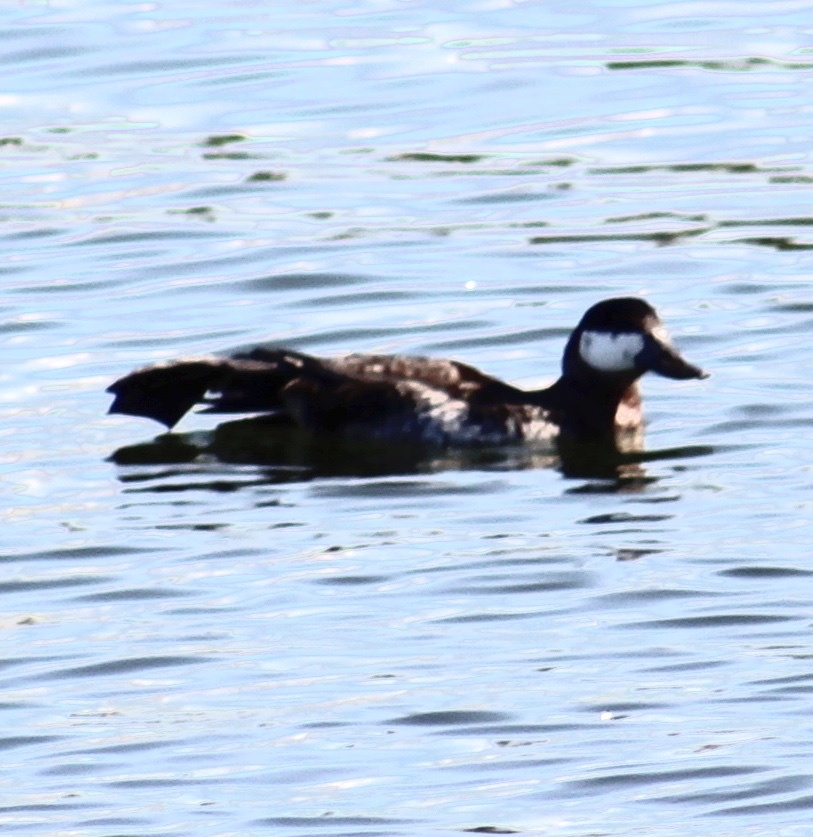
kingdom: Animalia
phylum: Chordata
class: Aves
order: Anseriformes
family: Anatidae
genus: Oxyura
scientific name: Oxyura jamaicensis
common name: Ruddy duck
